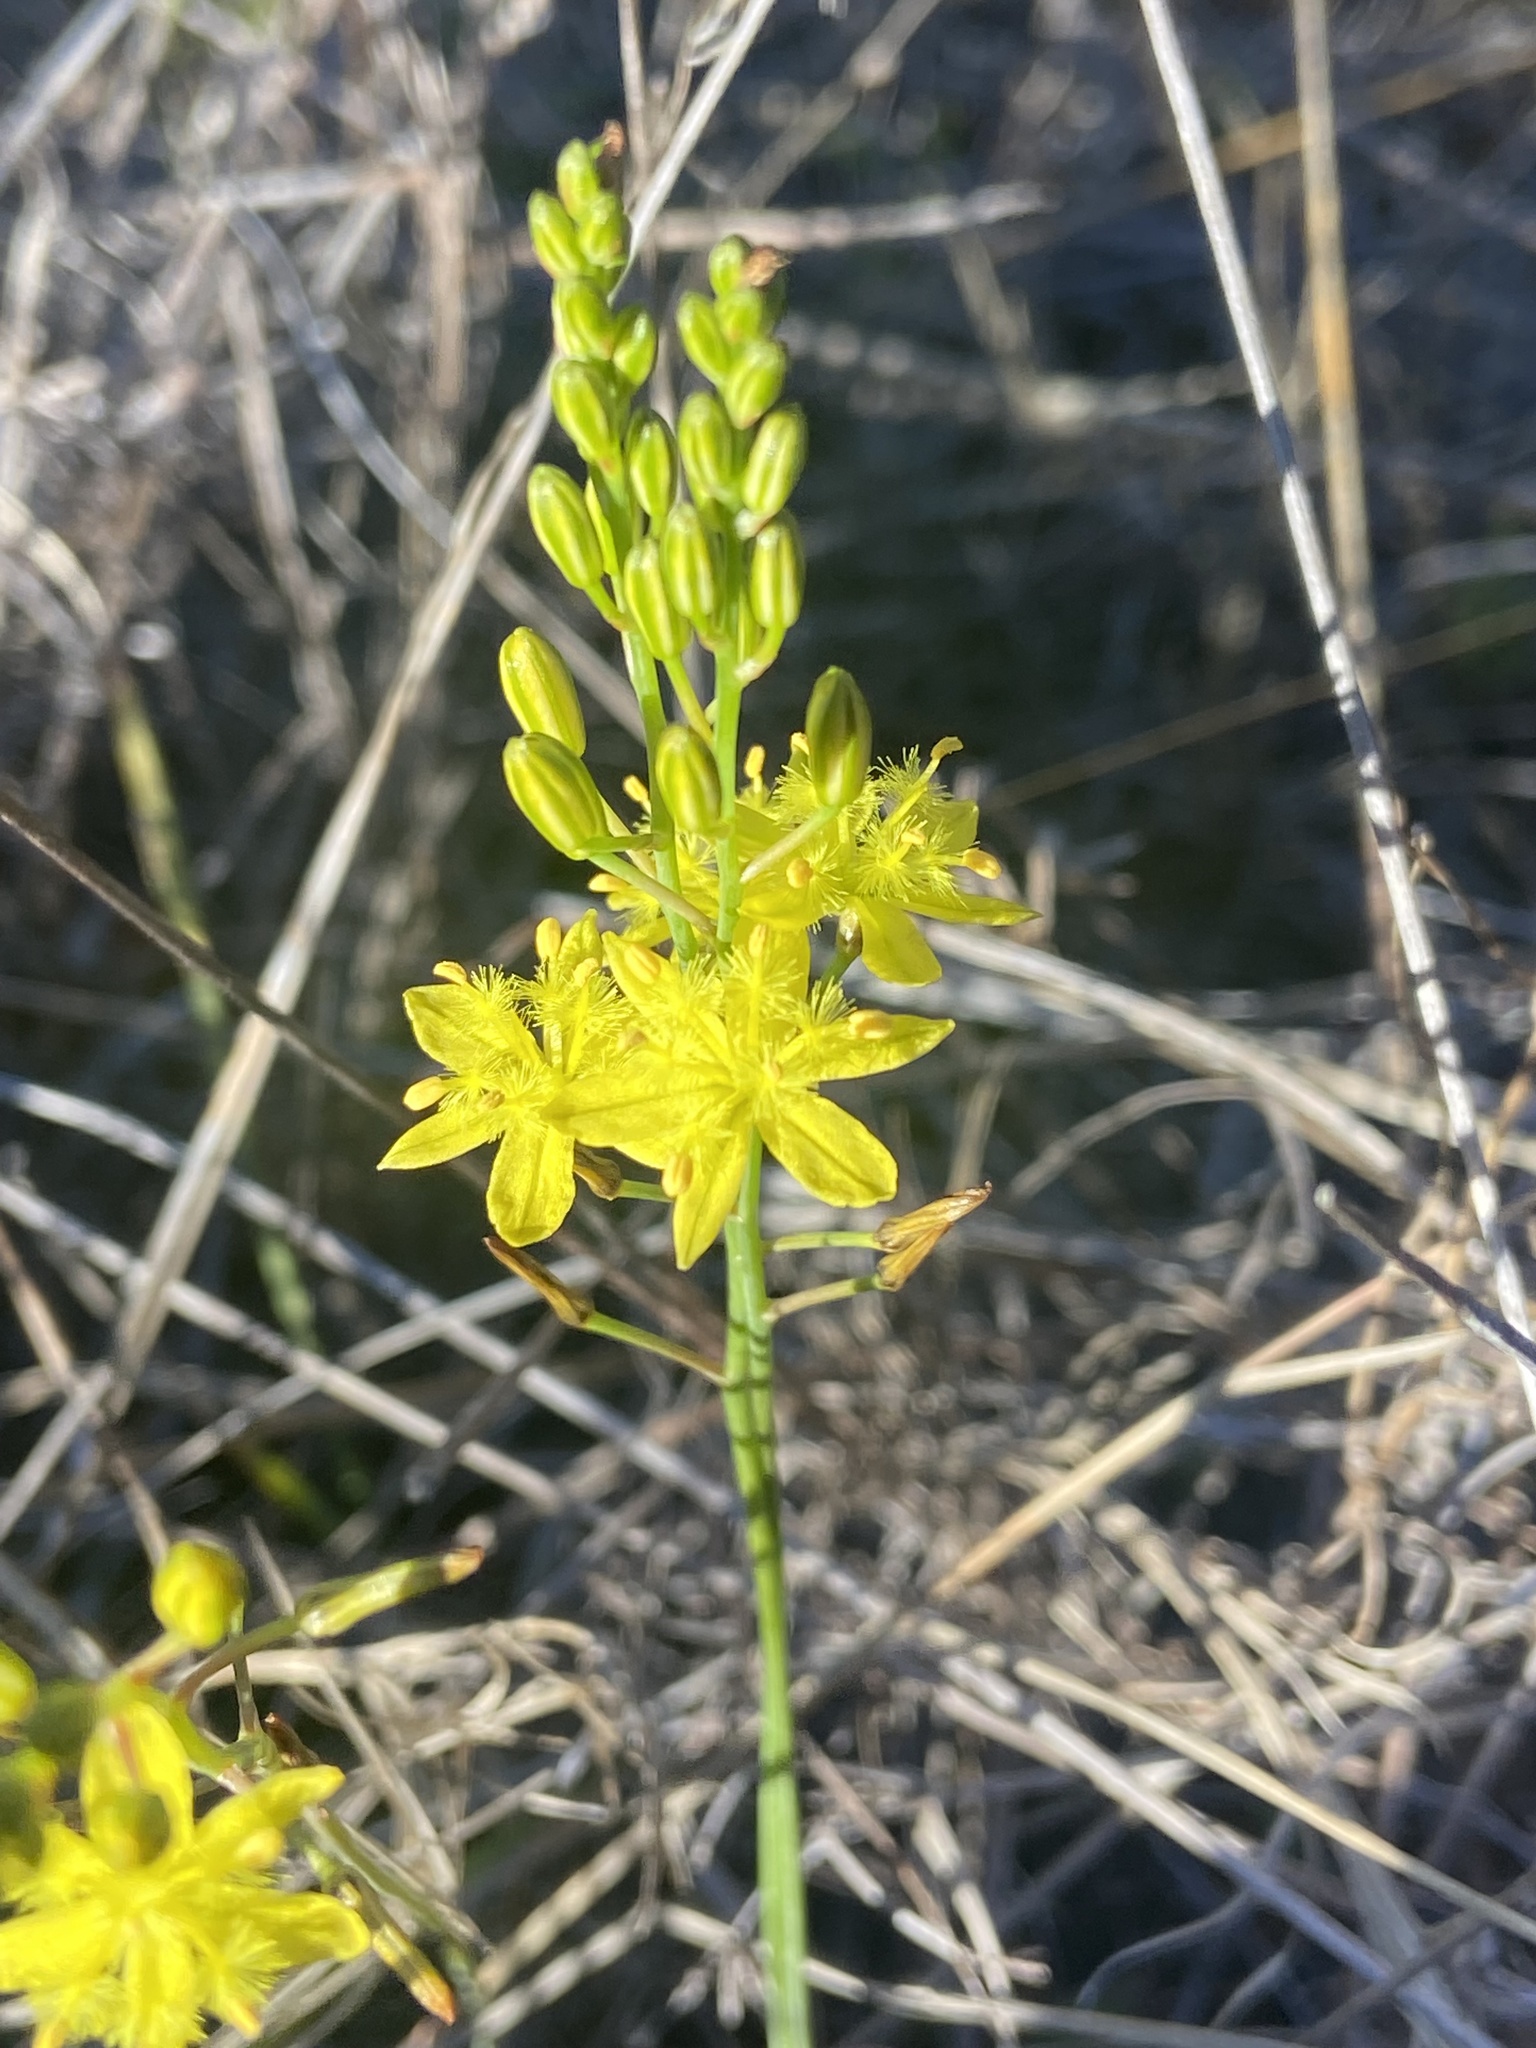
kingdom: Plantae
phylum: Tracheophyta
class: Liliopsida
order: Asparagales
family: Asphodelaceae
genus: Bulbine
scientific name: Bulbine favosa
